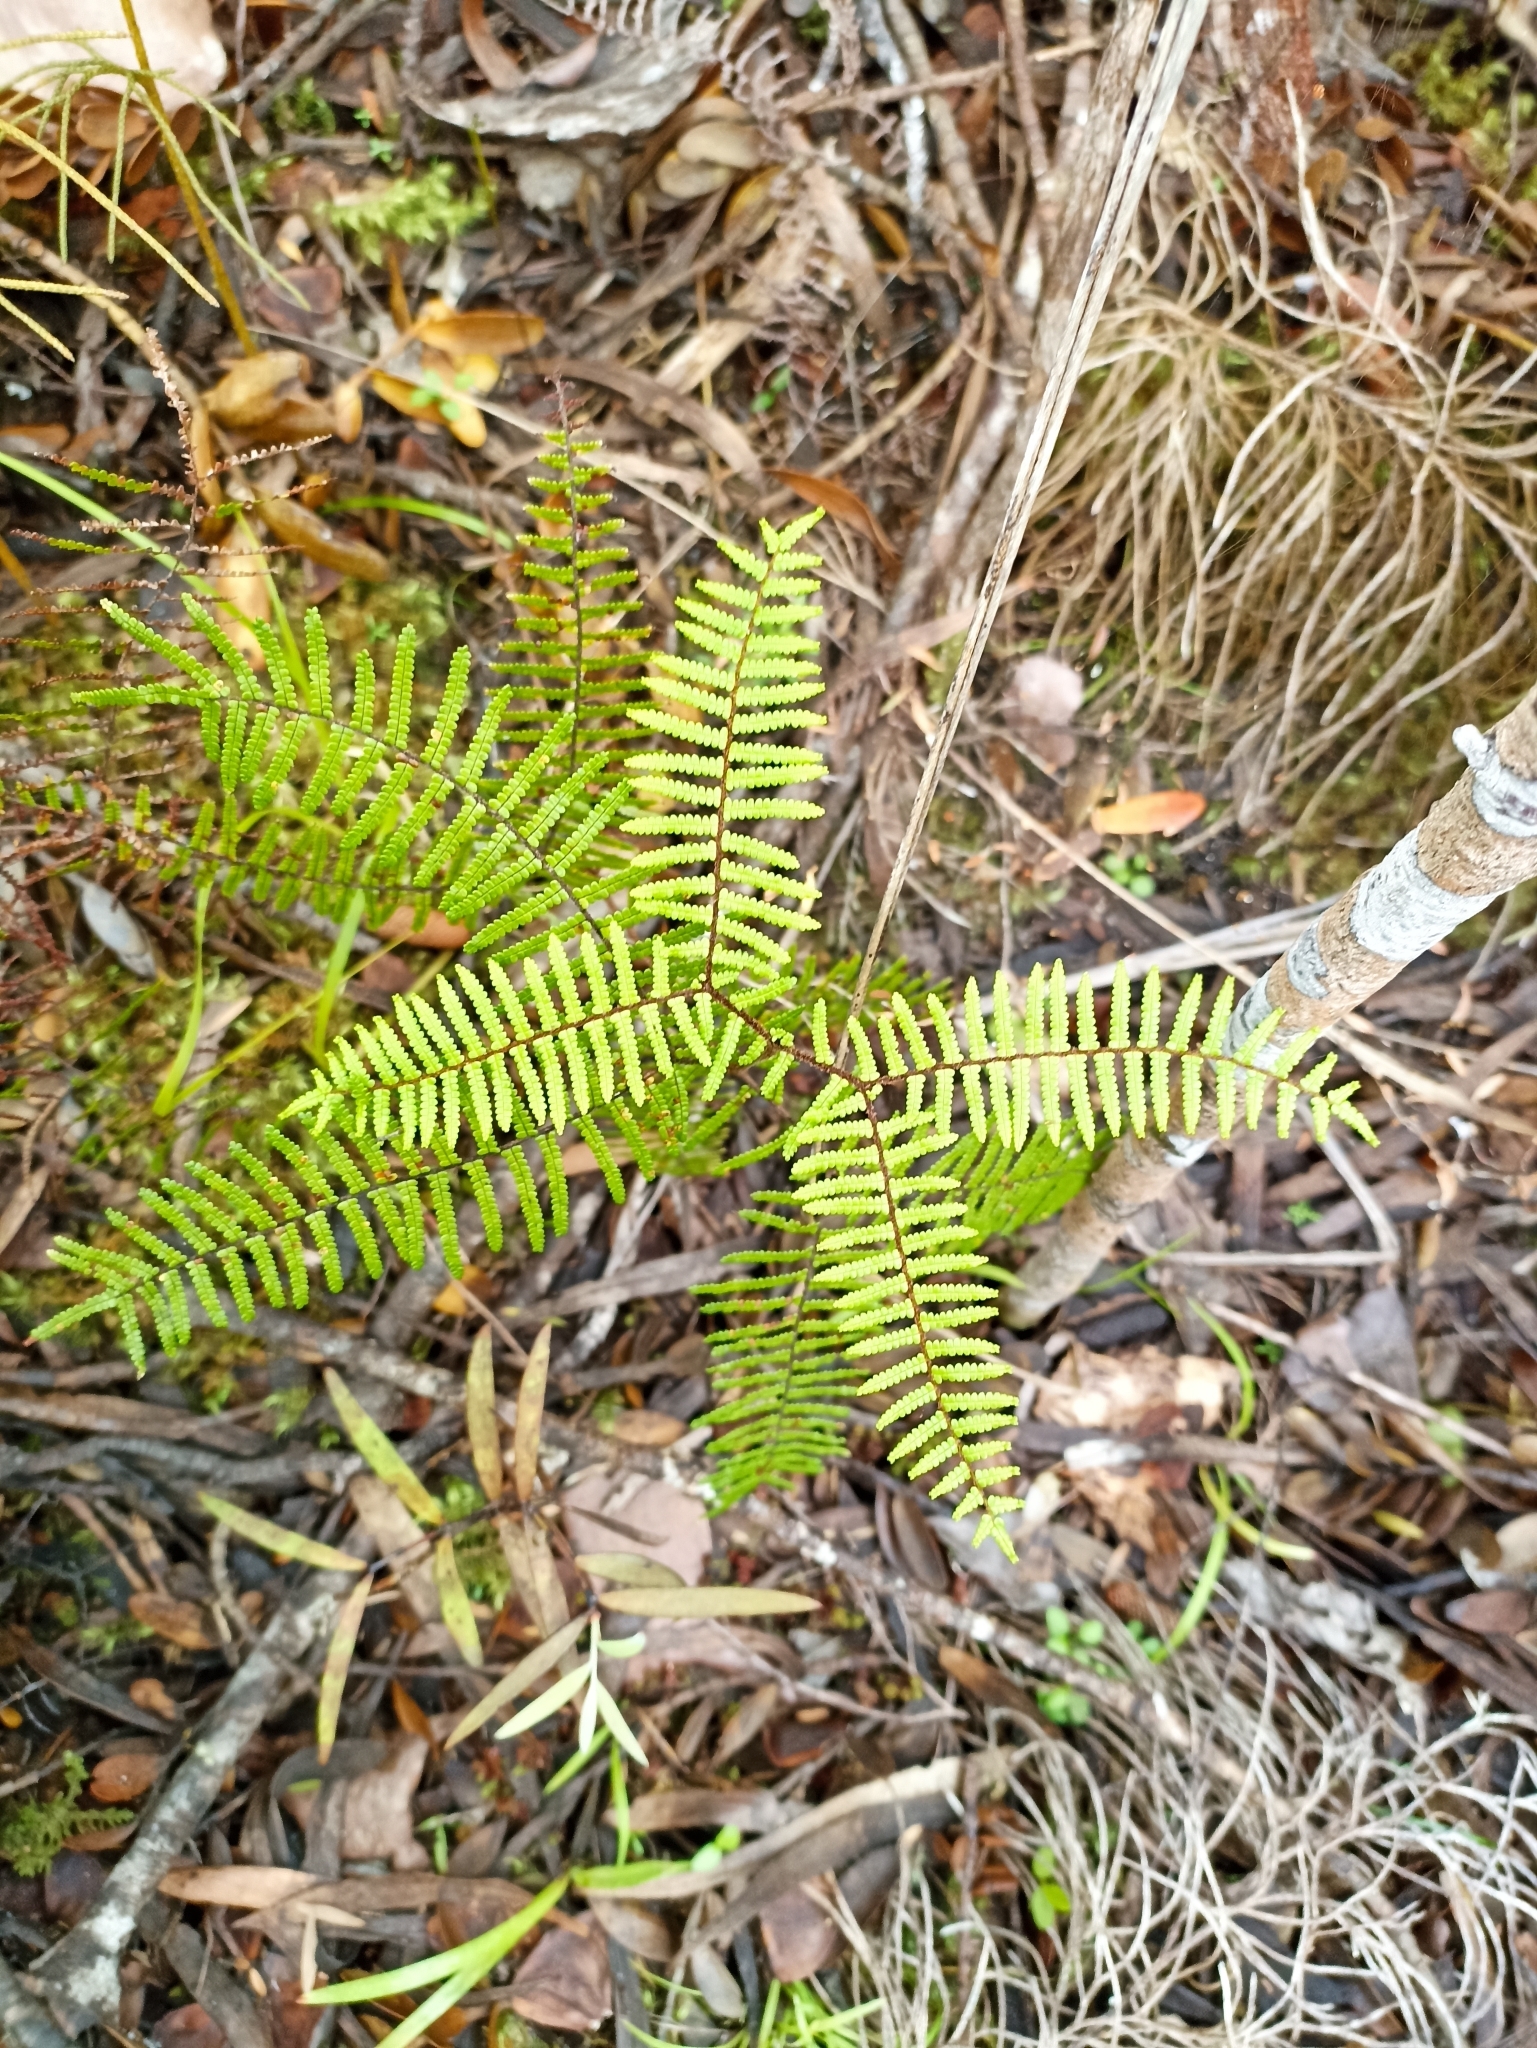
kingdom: Plantae
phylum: Tracheophyta
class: Polypodiopsida
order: Gleicheniales
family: Gleicheniaceae
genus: Gleichenia
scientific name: Gleichenia microphylla
